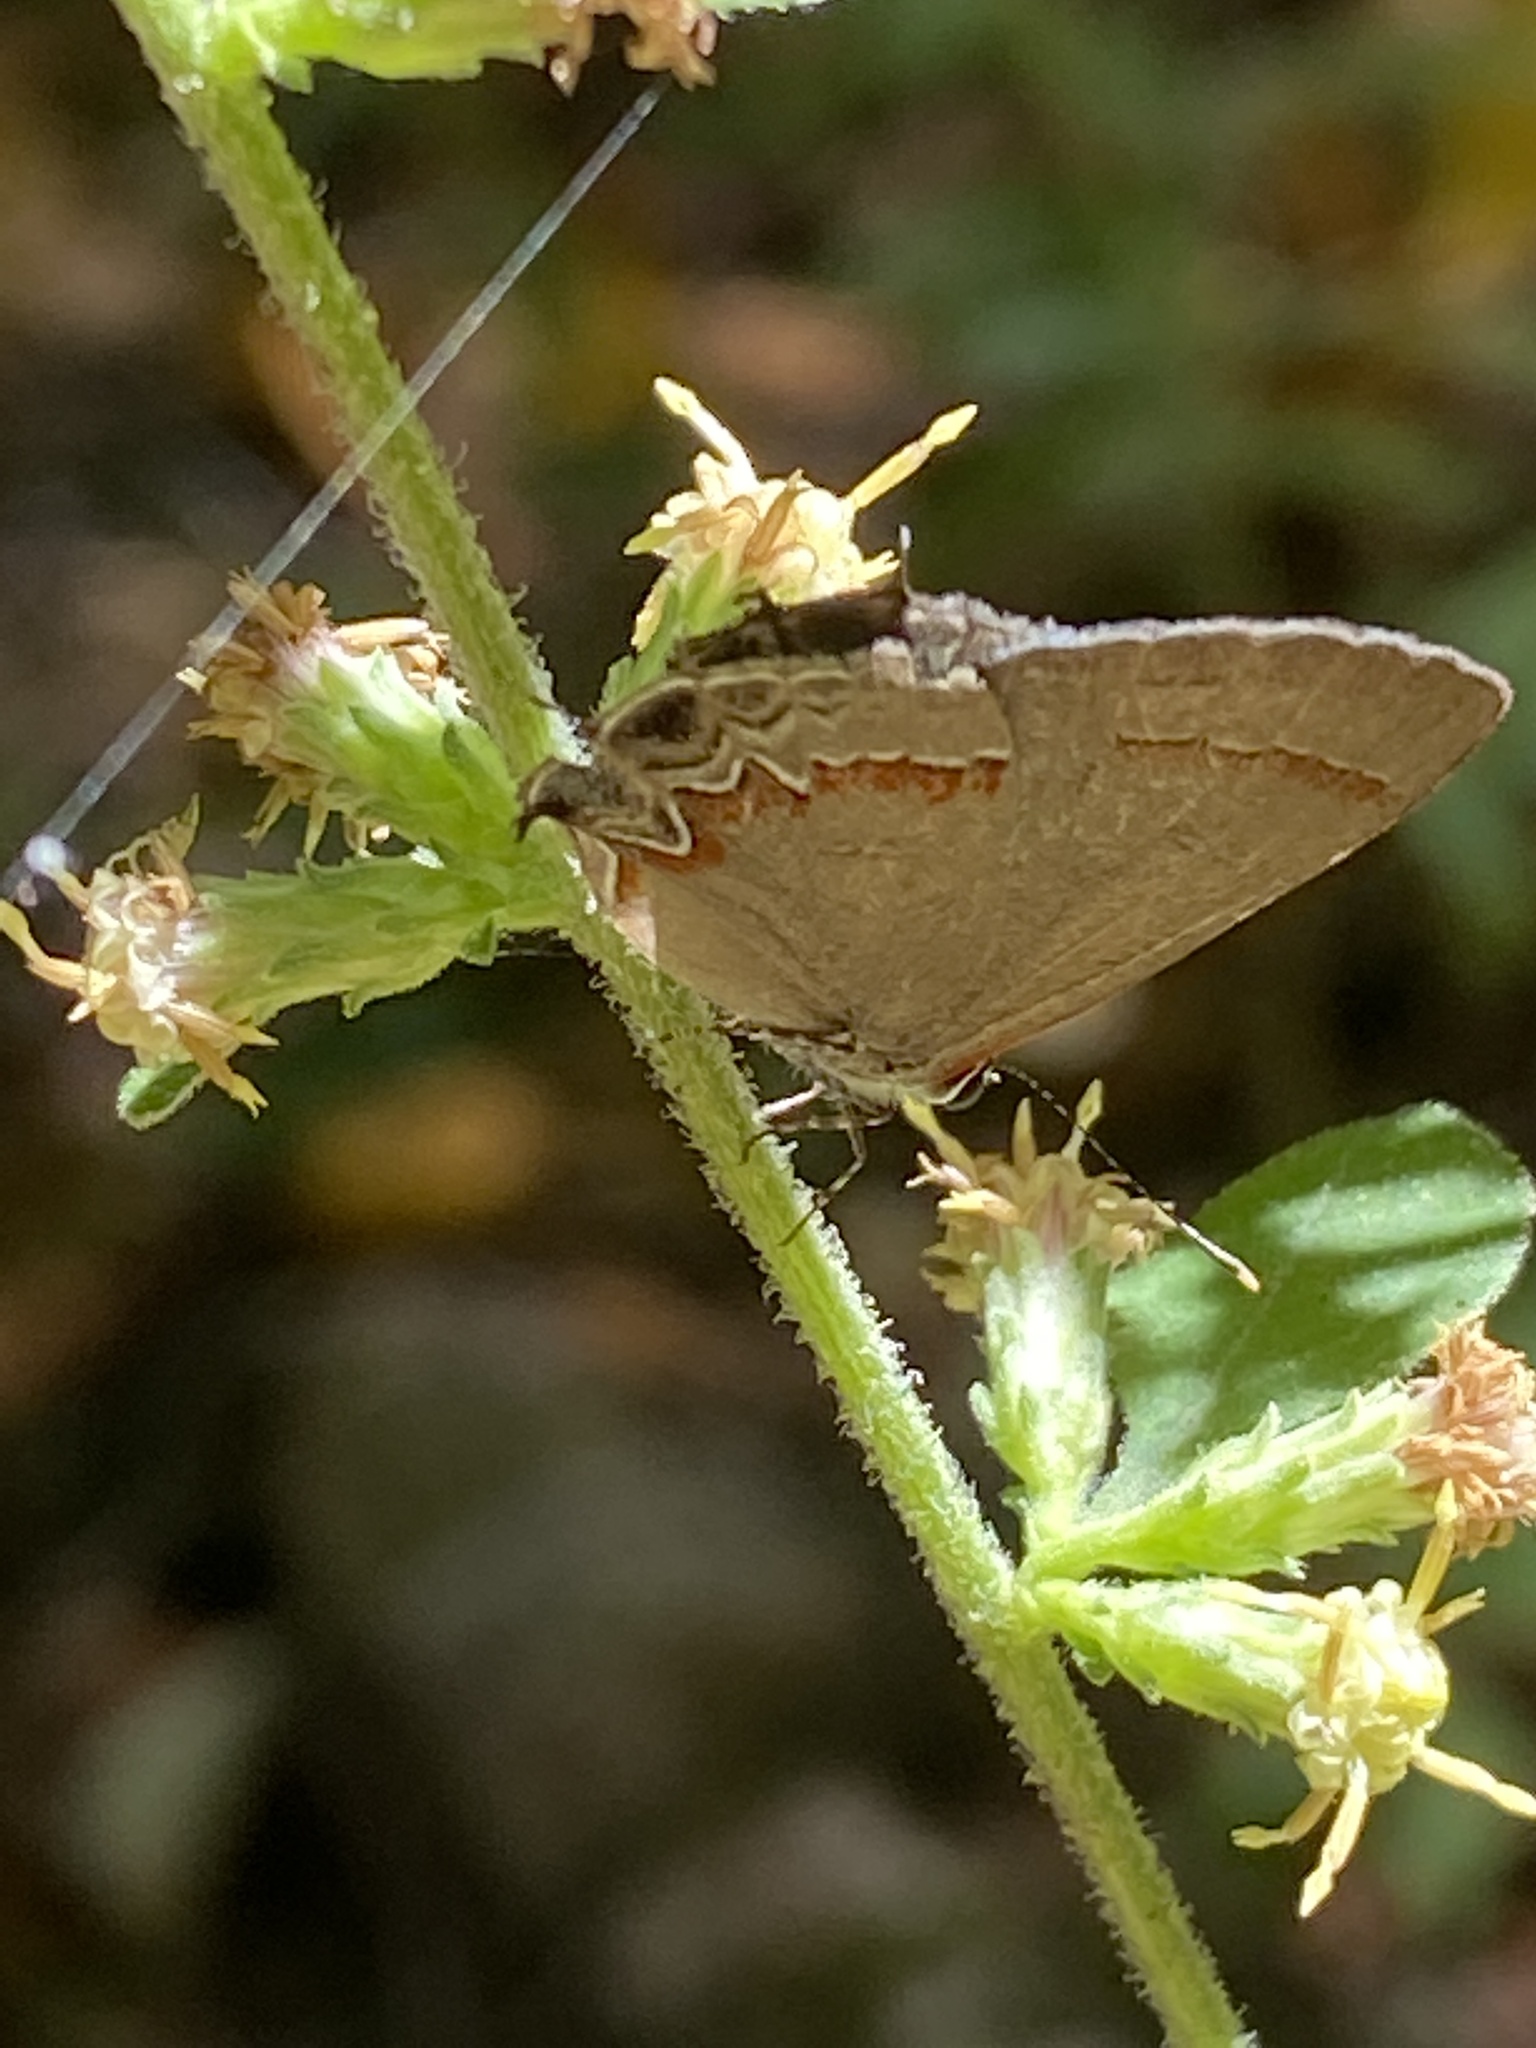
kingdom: Animalia
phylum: Arthropoda
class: Insecta
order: Lepidoptera
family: Lycaenidae
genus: Calycopis
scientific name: Calycopis cecrops
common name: Red-banded hairstreak
